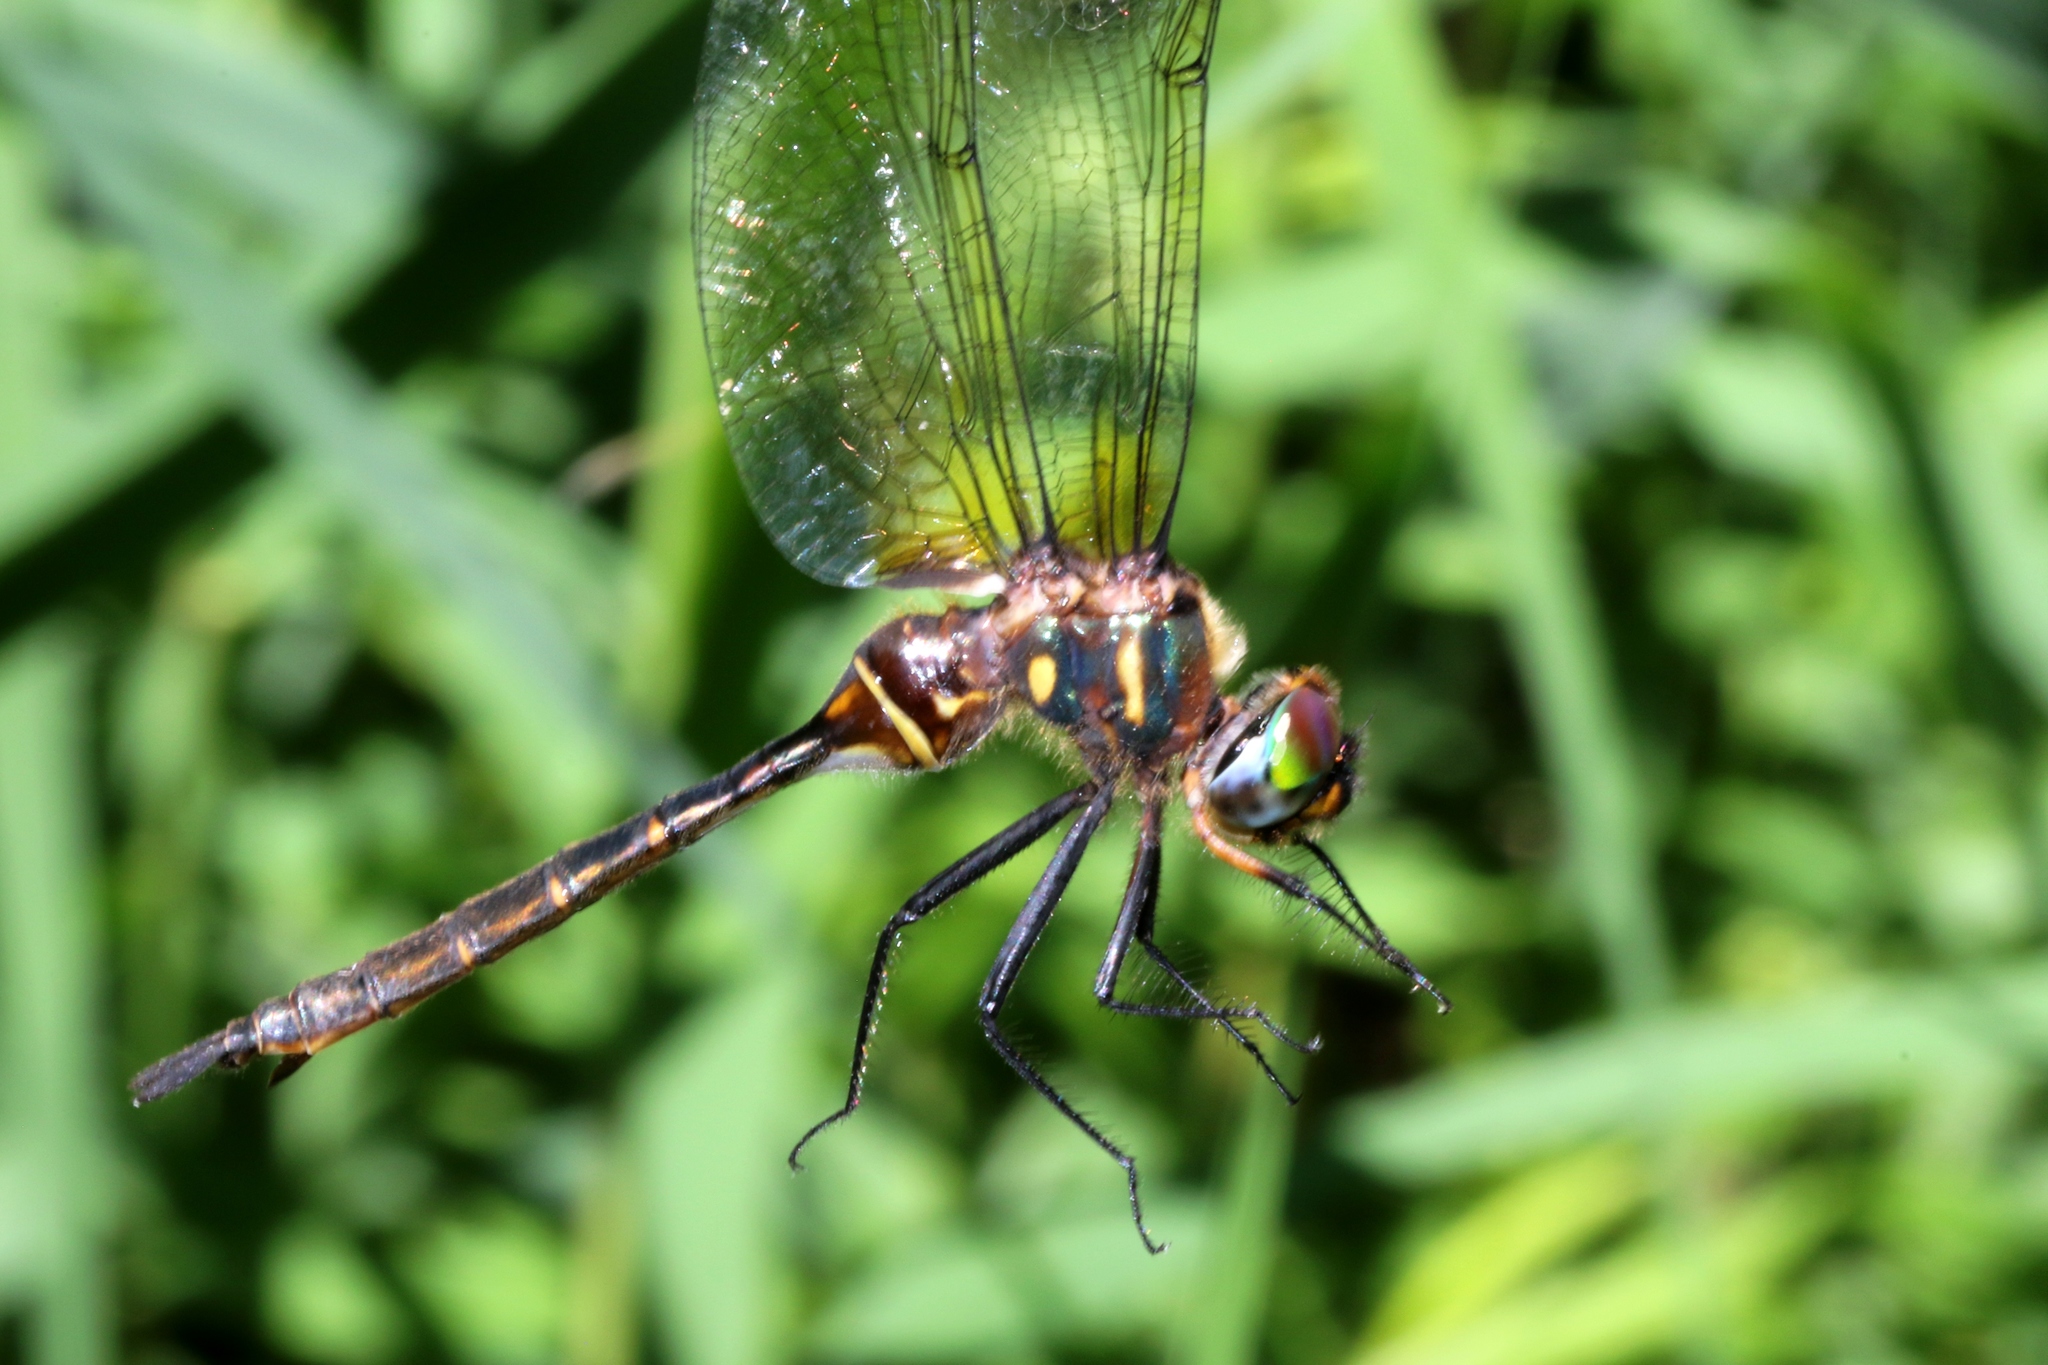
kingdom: Animalia
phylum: Arthropoda
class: Insecta
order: Odonata
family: Corduliidae
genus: Somatochlora
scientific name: Somatochlora walshii
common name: Brush-tipped emerald
